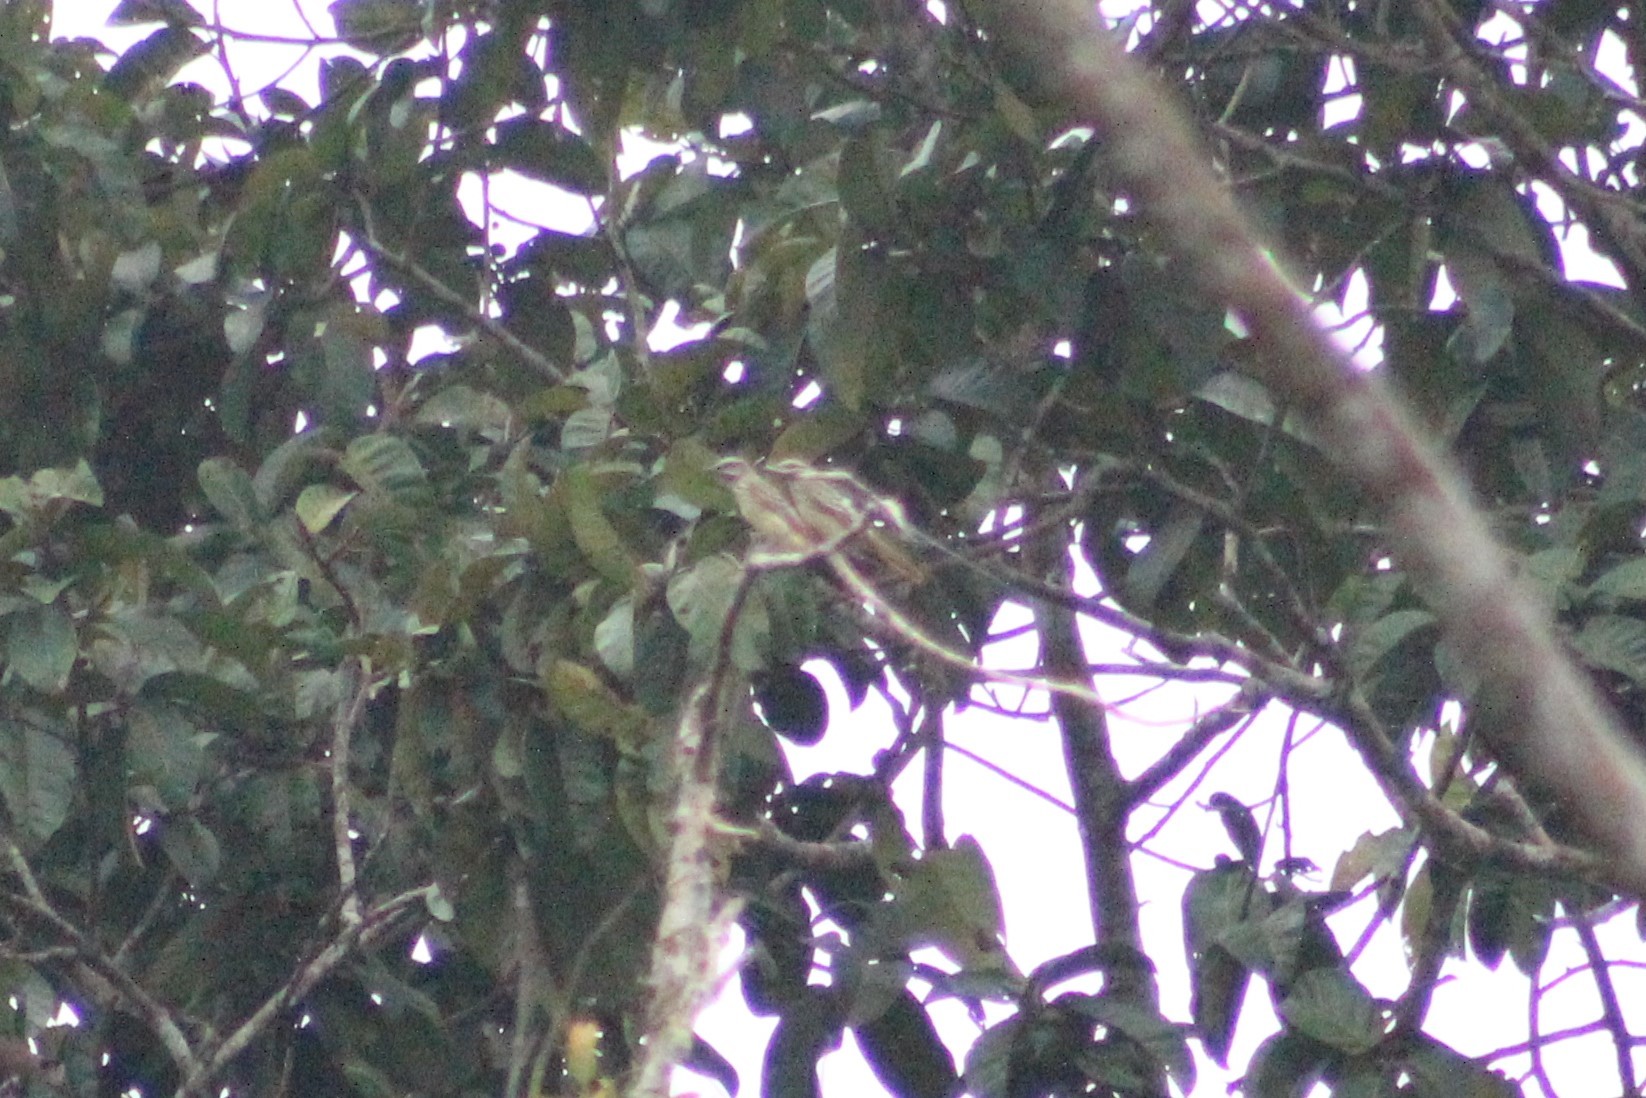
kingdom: Animalia
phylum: Chordata
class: Aves
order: Passeriformes
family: Tyrannidae
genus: Myiodynastes
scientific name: Myiodynastes maculatus
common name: Streaked flycatcher
